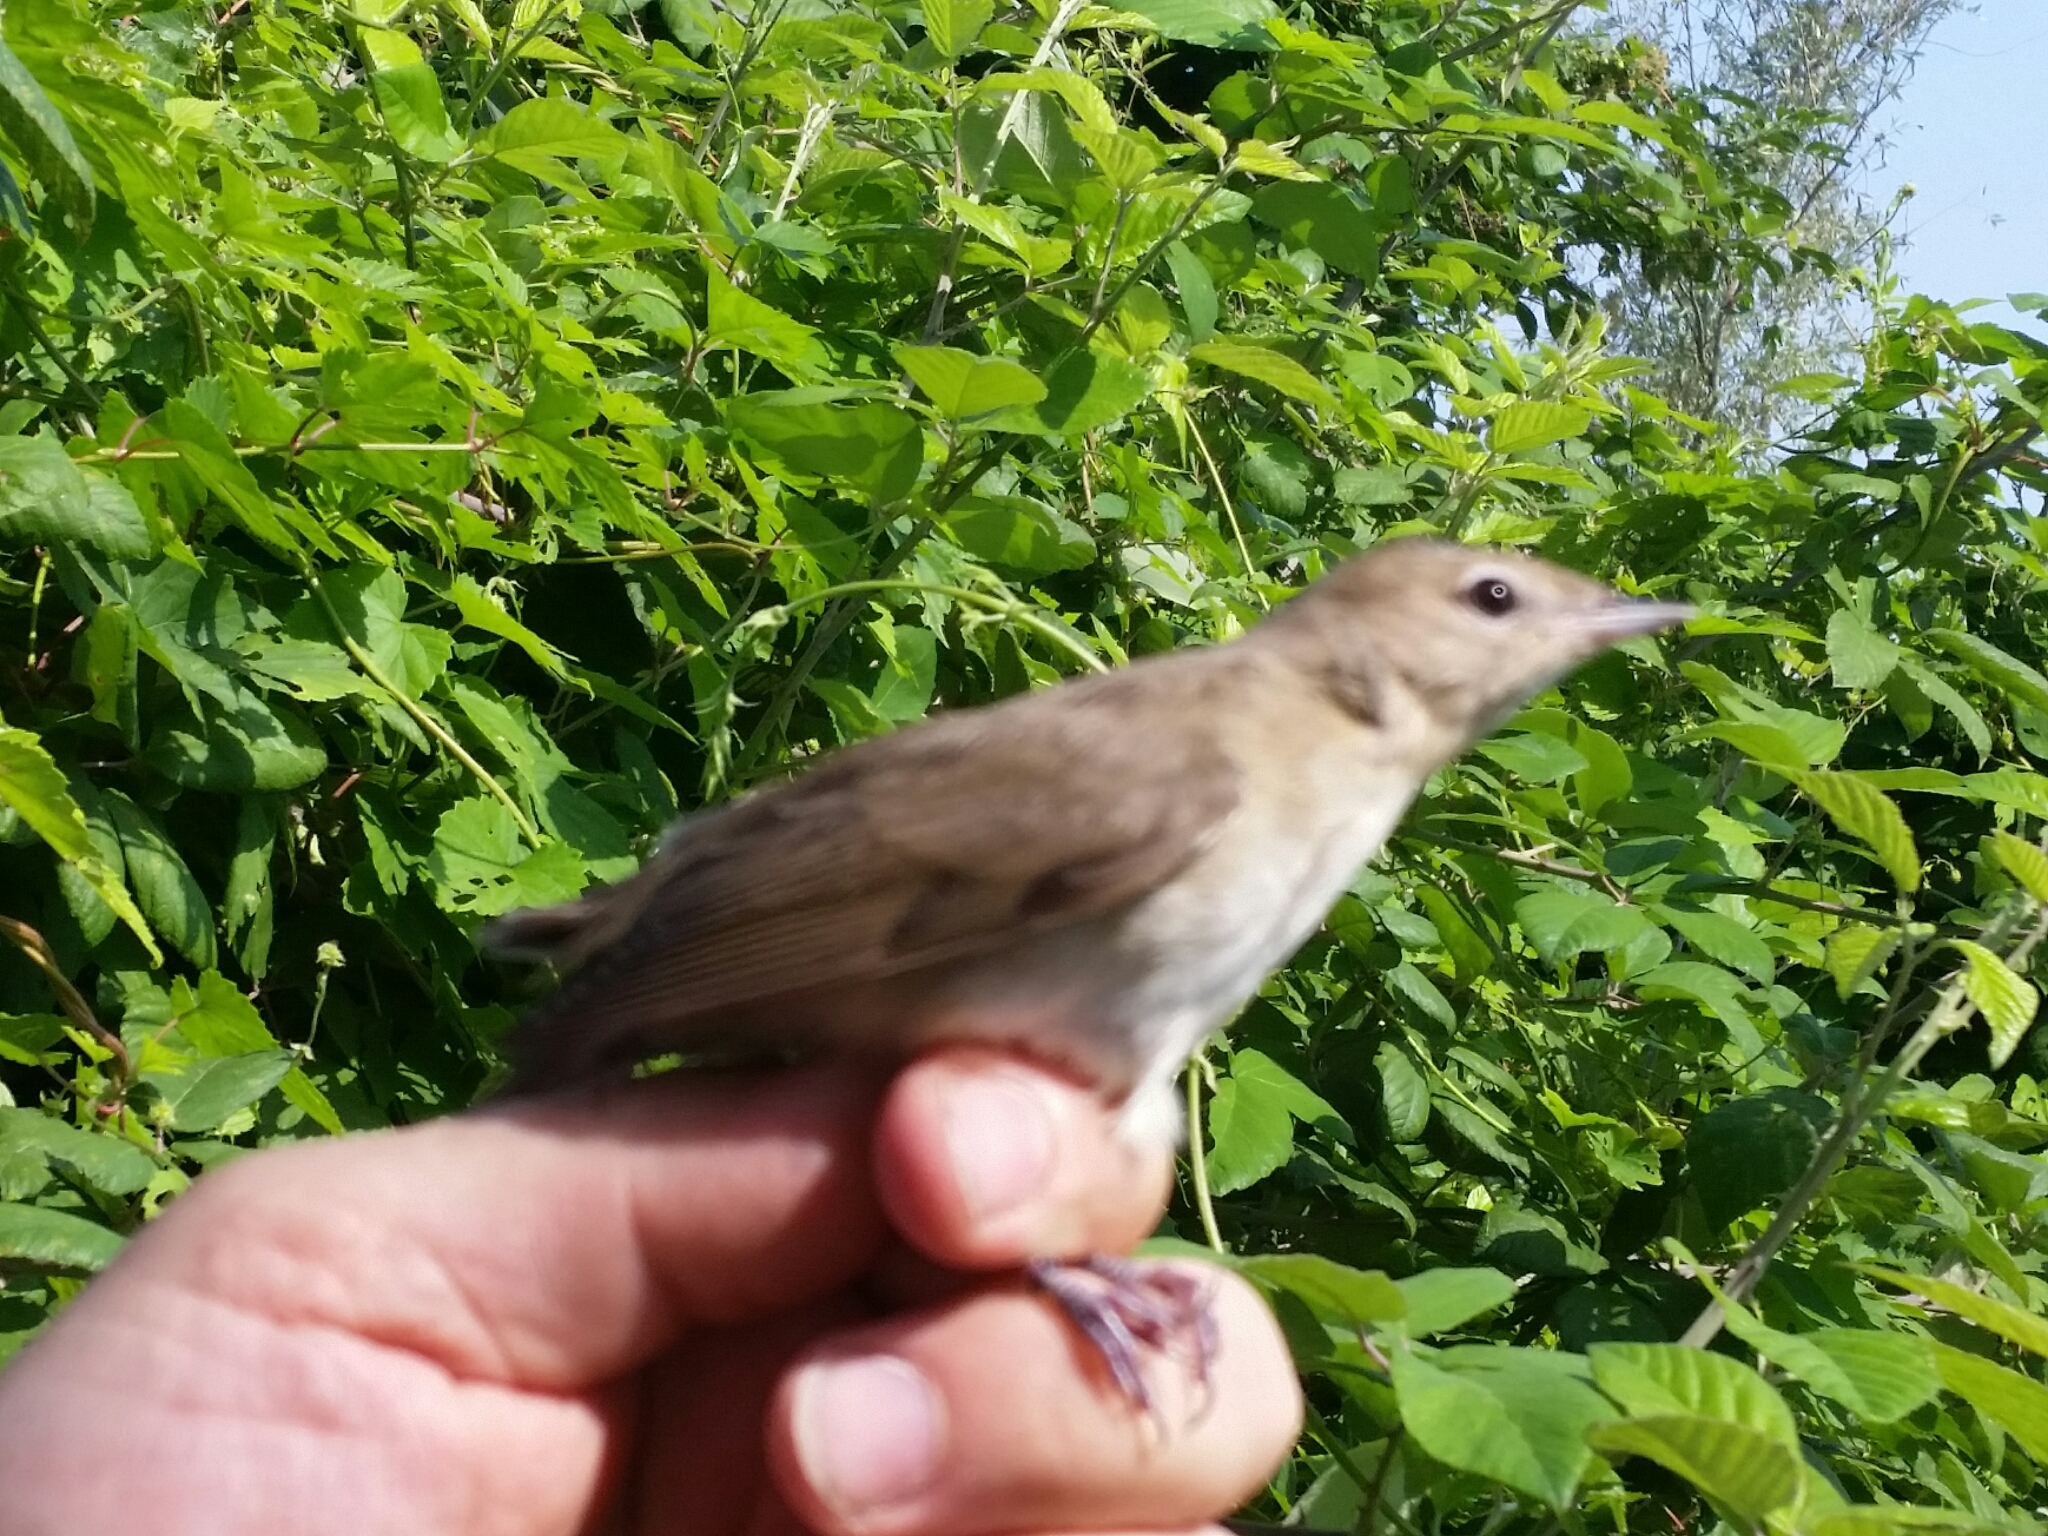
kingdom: Animalia
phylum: Chordata
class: Aves
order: Passeriformes
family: Sylviidae
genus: Sylvia
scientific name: Sylvia borin
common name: Garden warbler
